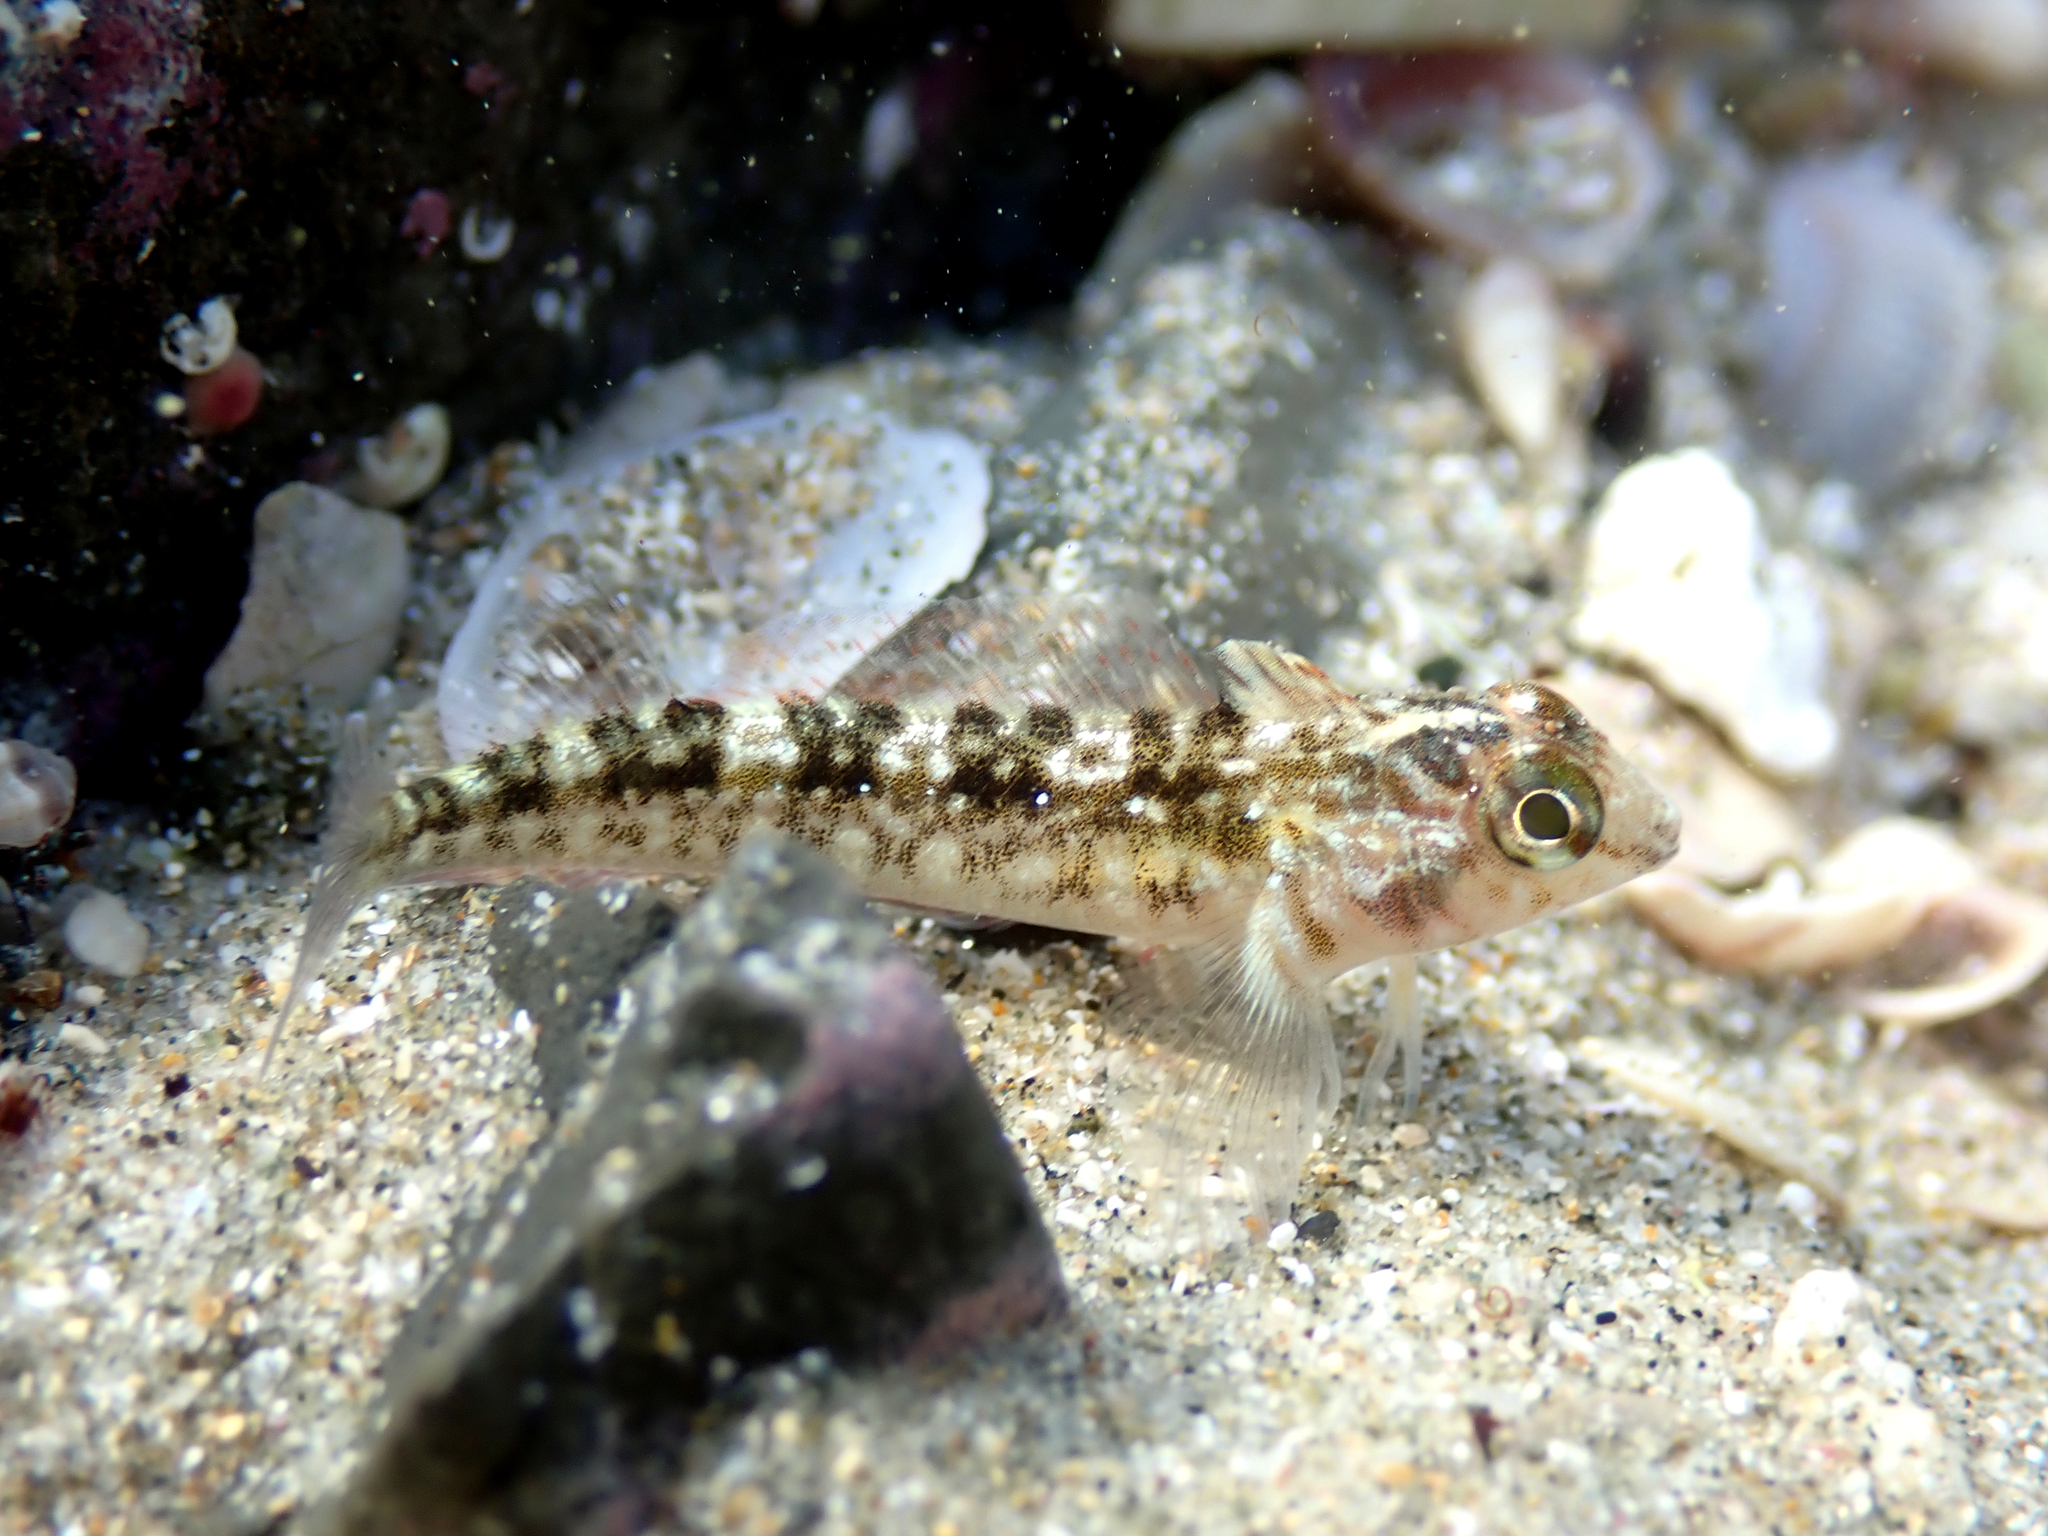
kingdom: Animalia
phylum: Chordata
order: Perciformes
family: Tripterygiidae
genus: Forsterygion
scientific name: Forsterygion lapillum
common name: Common triplefin
